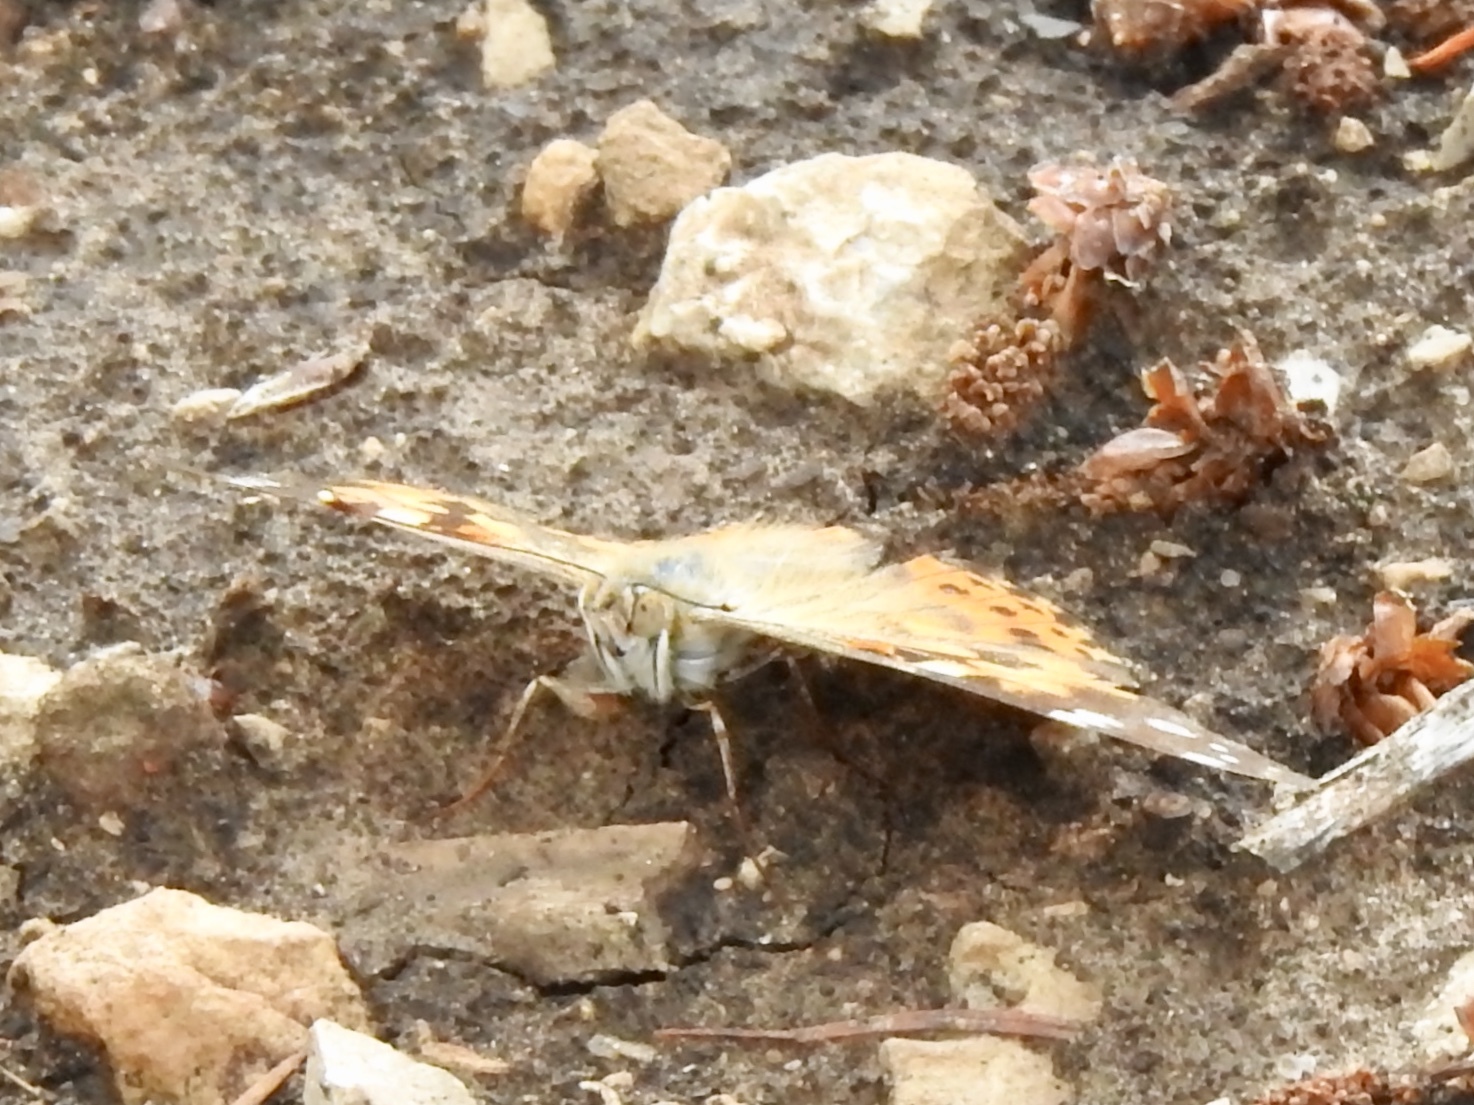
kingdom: Animalia
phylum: Arthropoda
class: Insecta
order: Lepidoptera
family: Nymphalidae
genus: Vanessa
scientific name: Vanessa cardui
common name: Painted lady
